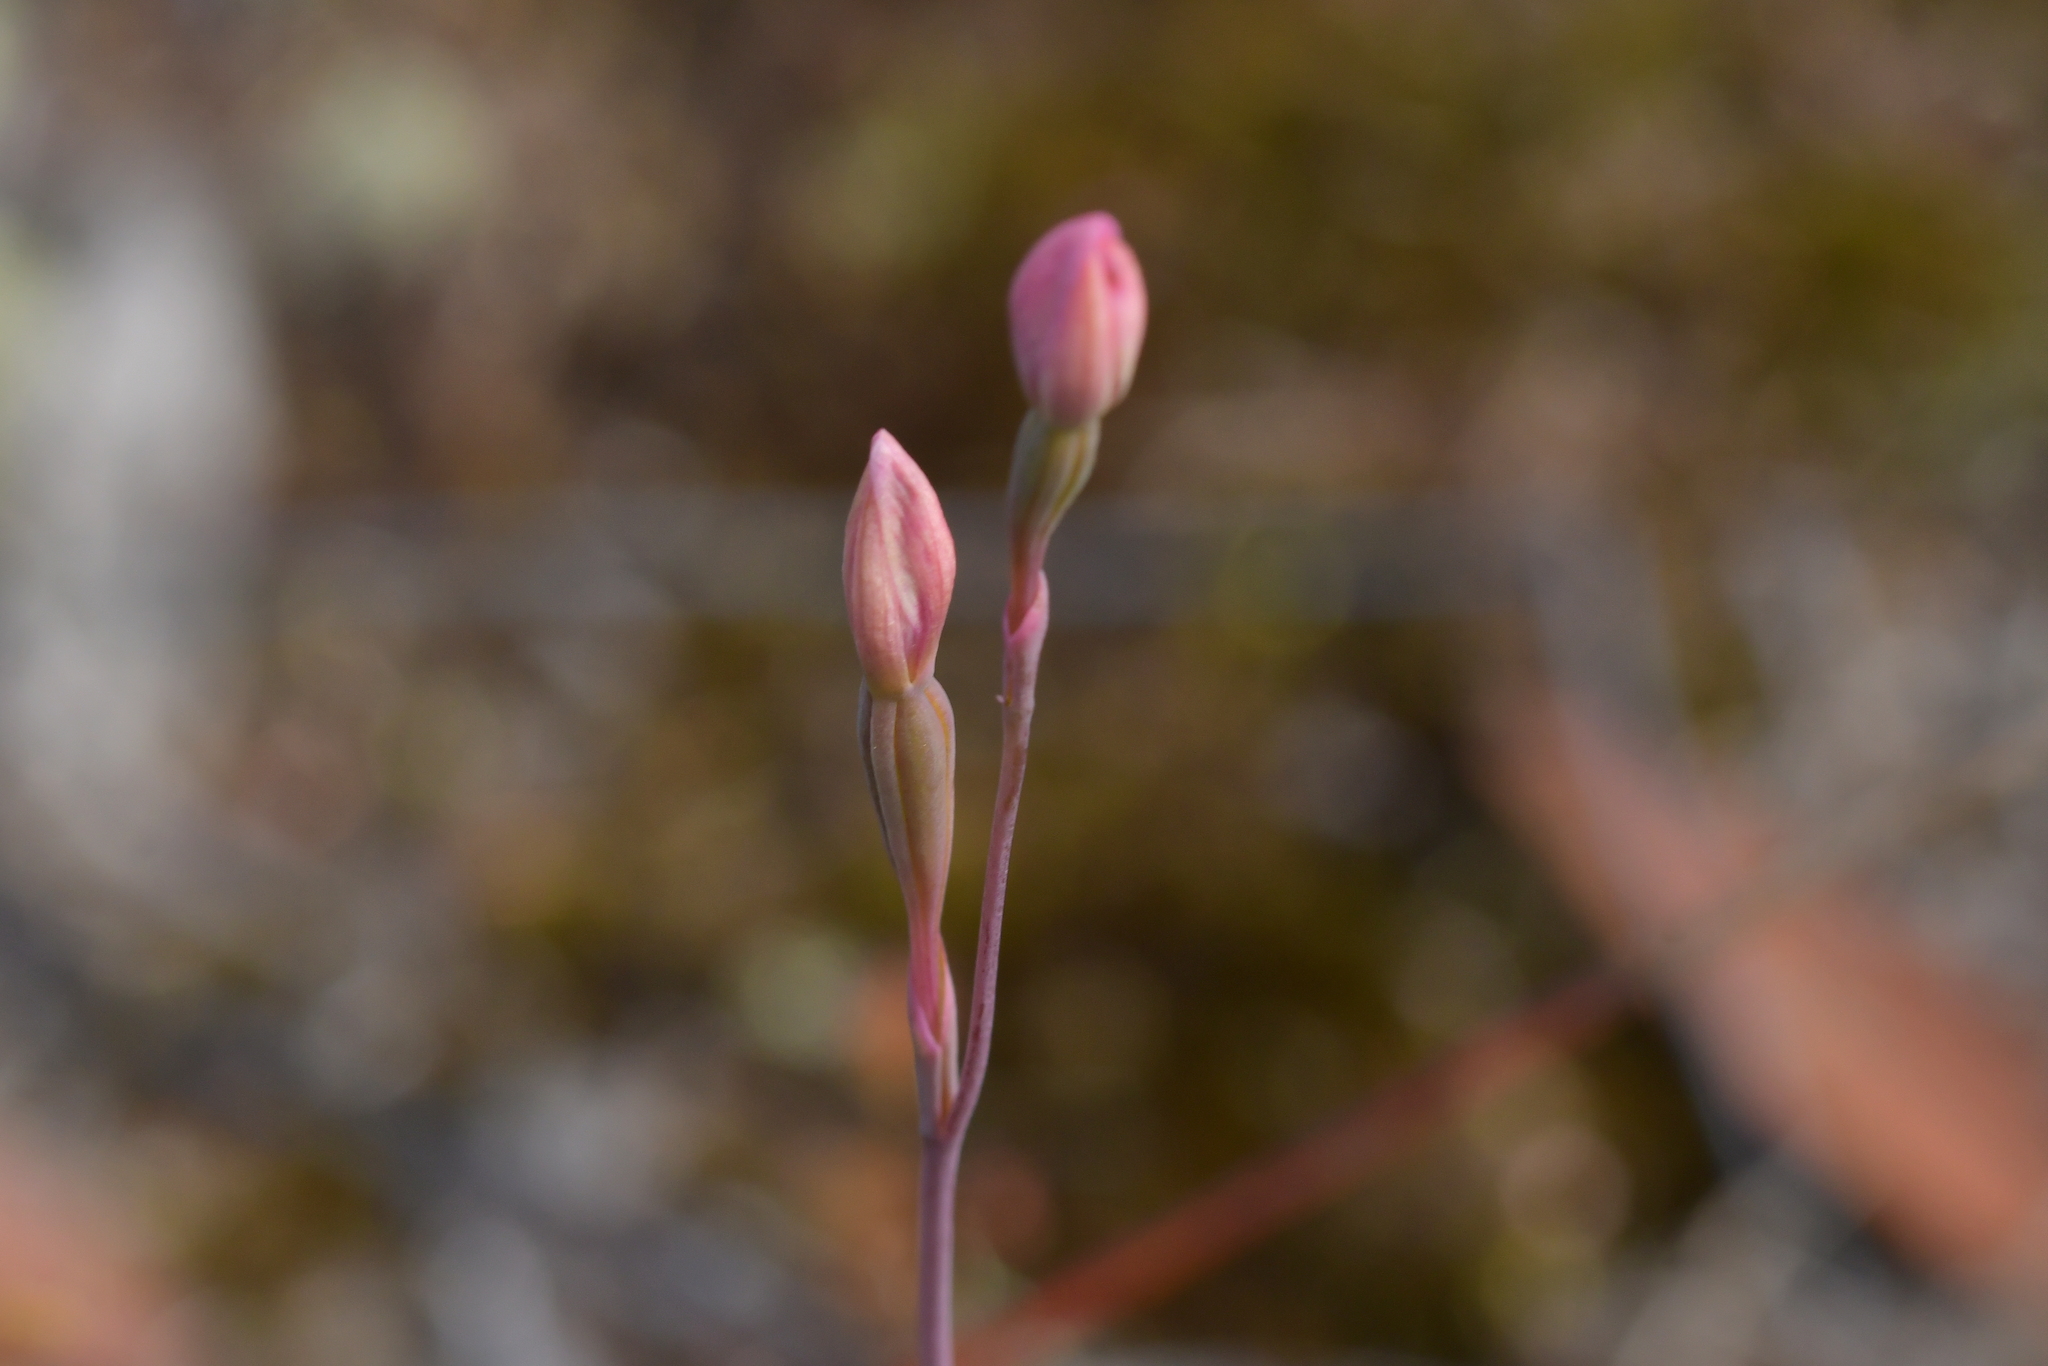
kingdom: Plantae
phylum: Tracheophyta
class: Liliopsida
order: Asparagales
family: Orchidaceae
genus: Thelymitra
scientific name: Thelymitra carnea
